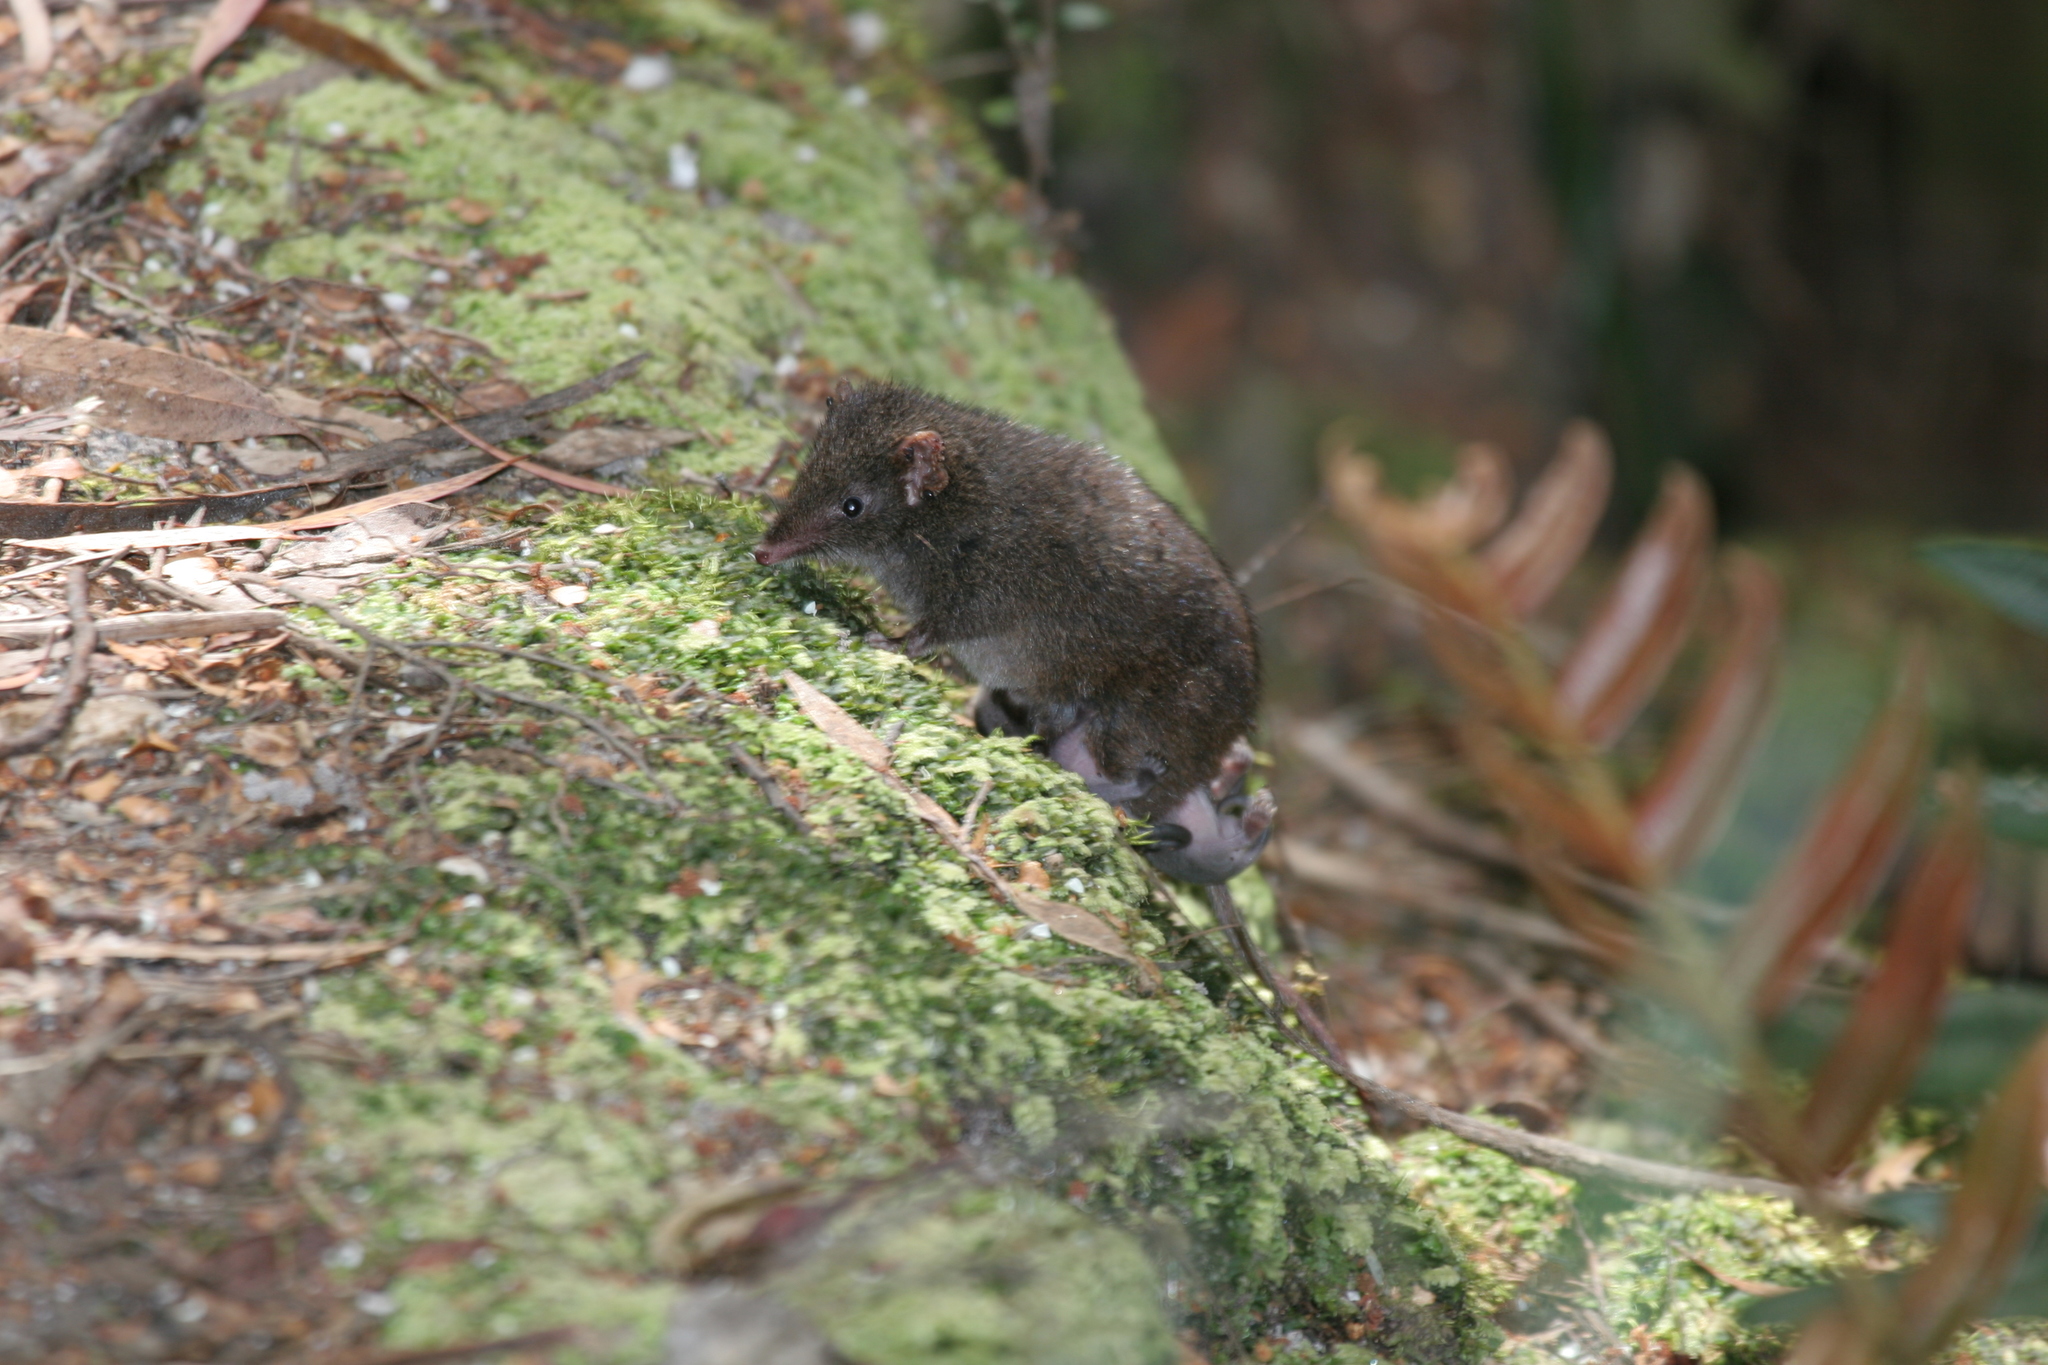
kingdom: Animalia
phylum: Chordata
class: Mammalia
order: Dasyuromorphia
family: Dasyuridae
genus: Antechinus
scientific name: Antechinus swainsonii
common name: Dusky antechinus
